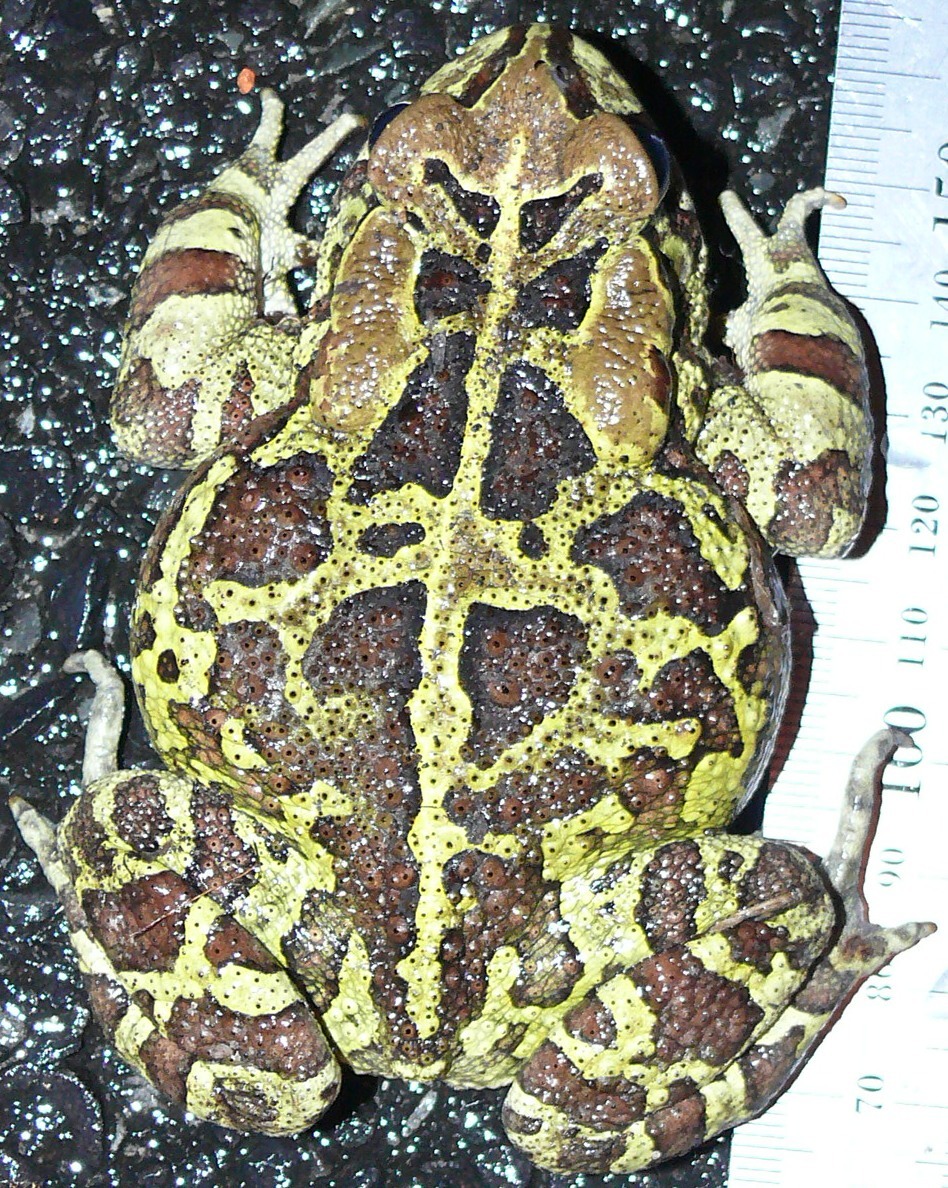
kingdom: Animalia
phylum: Chordata
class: Amphibia
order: Anura
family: Bufonidae
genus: Sclerophrys
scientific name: Sclerophrys pantherina
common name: Panther toad
